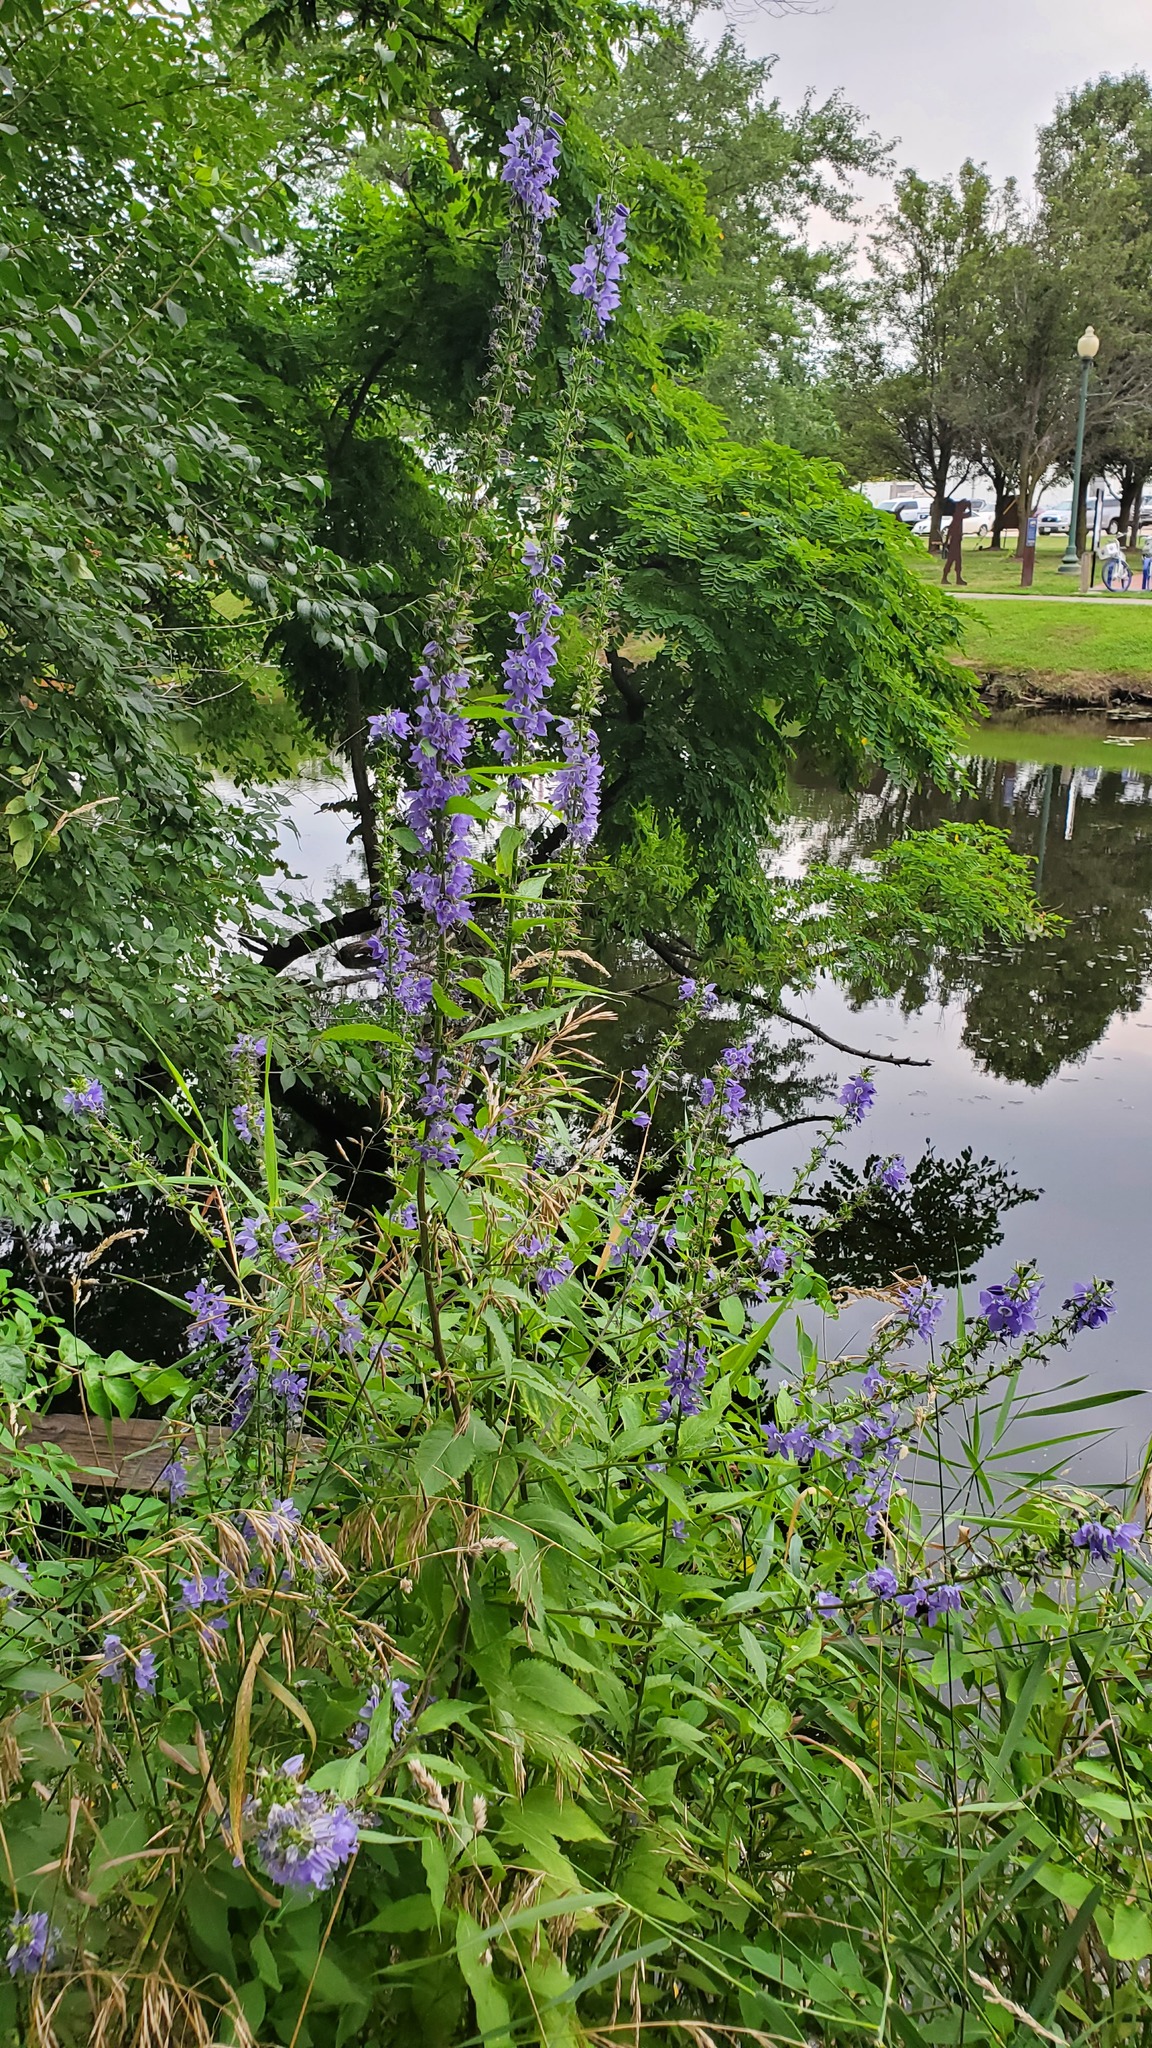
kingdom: Plantae
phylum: Tracheophyta
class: Magnoliopsida
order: Asterales
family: Campanulaceae
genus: Campanulastrum
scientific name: Campanulastrum americanum
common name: American bellflower
